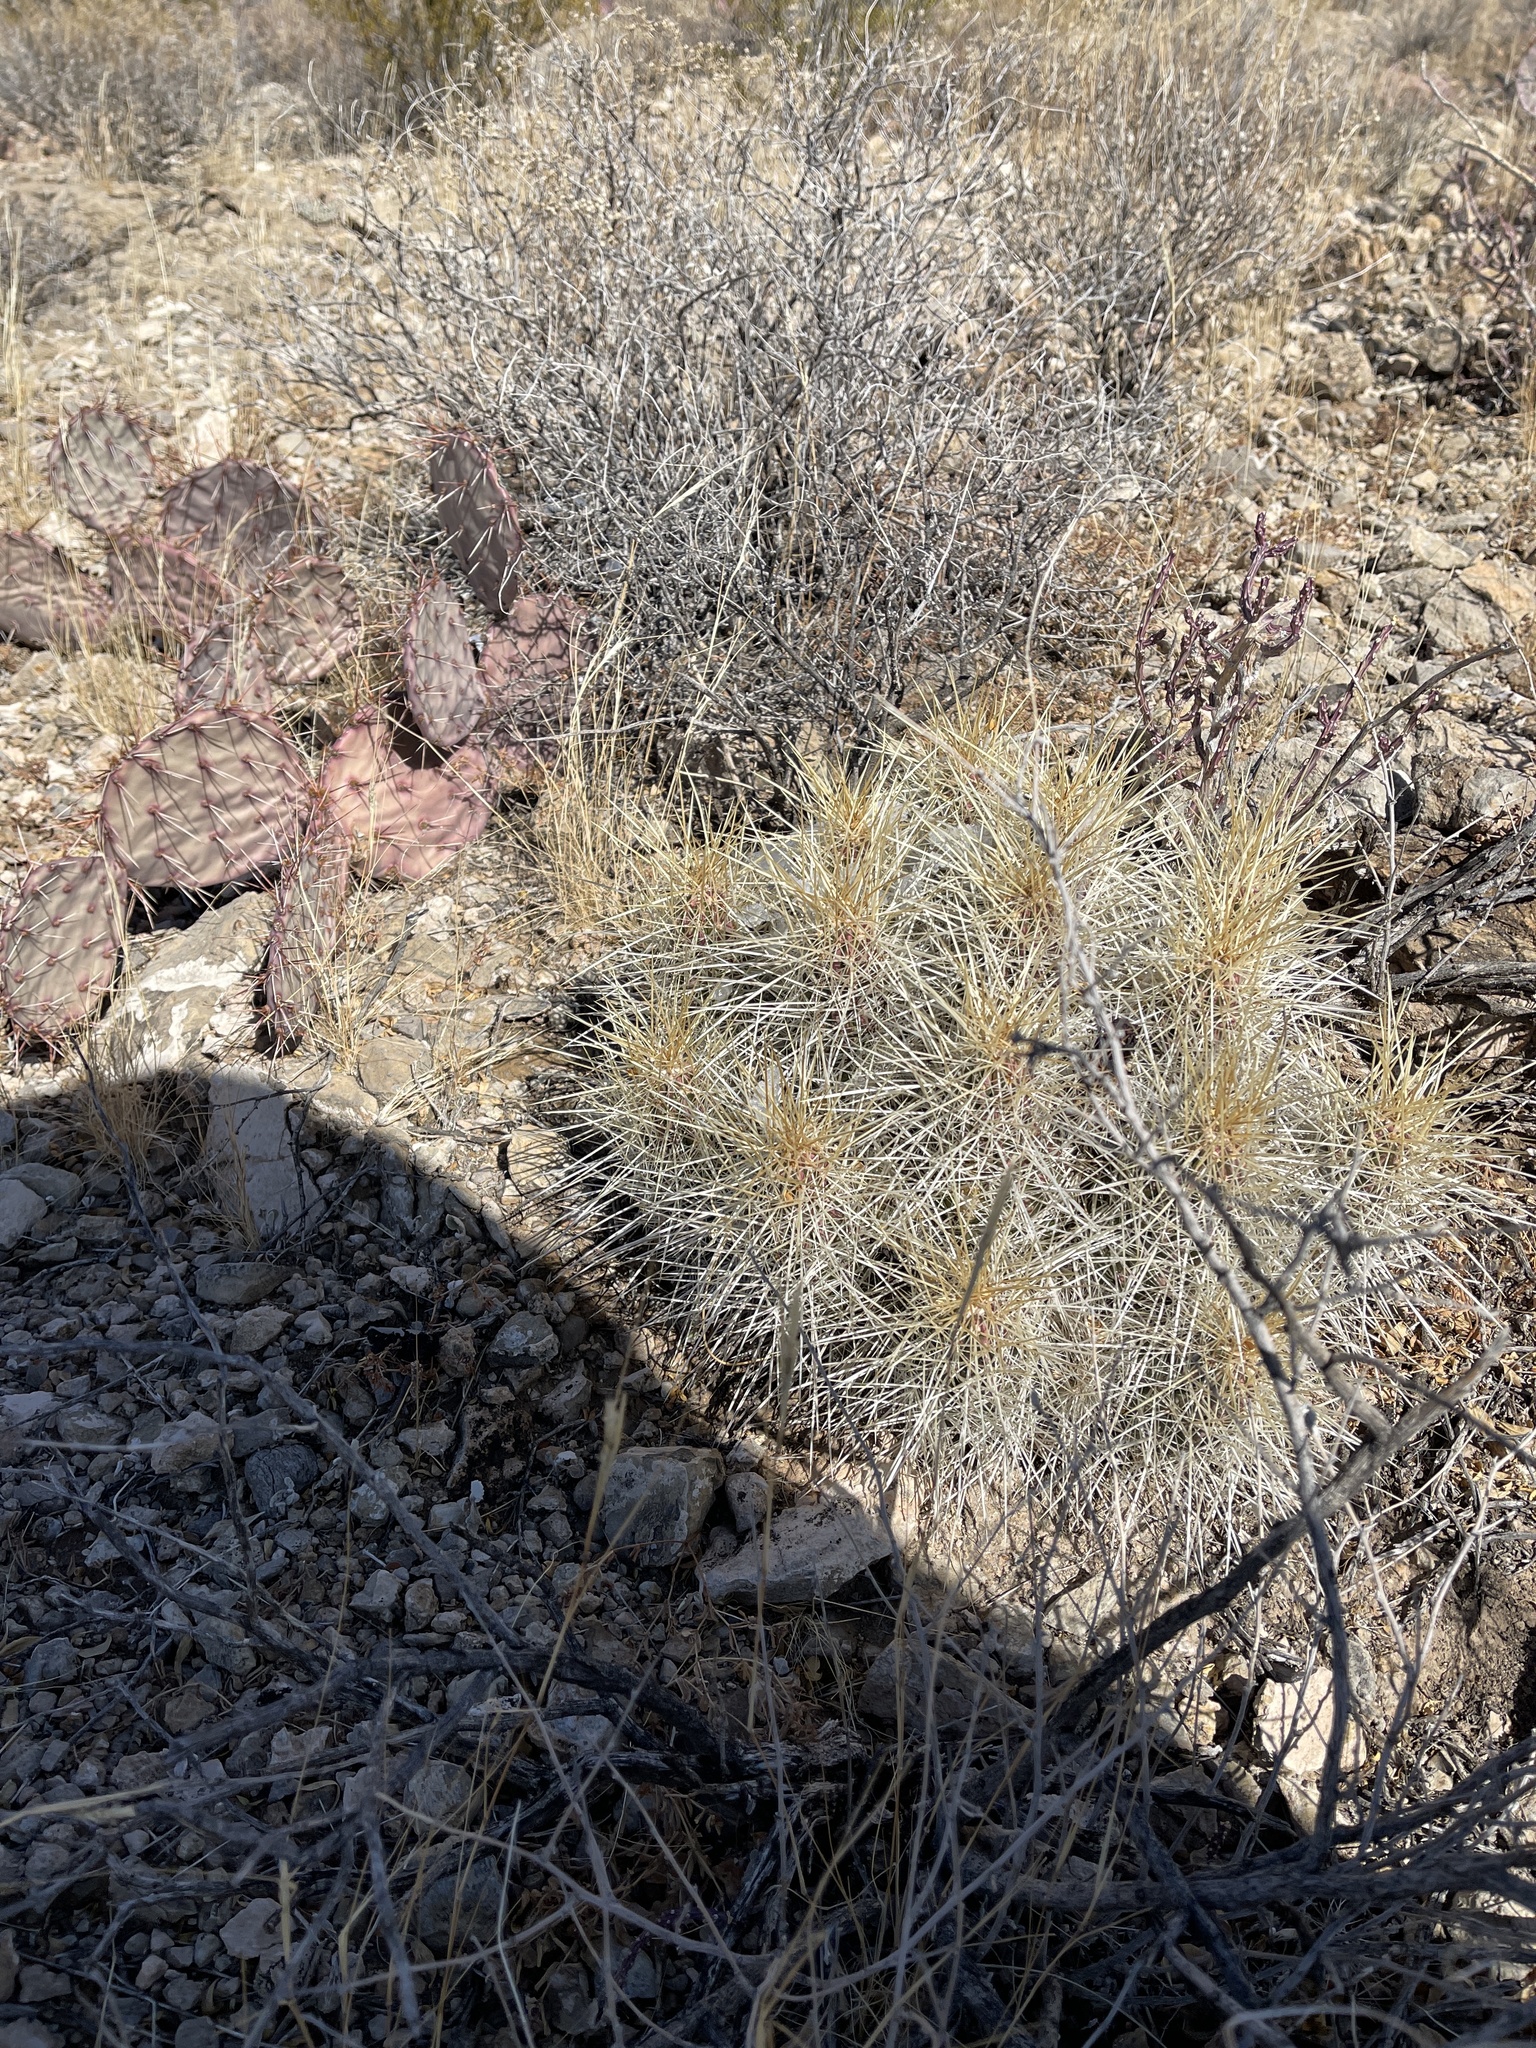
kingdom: Plantae
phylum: Tracheophyta
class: Magnoliopsida
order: Caryophyllales
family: Cactaceae
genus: Echinocereus
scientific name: Echinocereus stramineus
